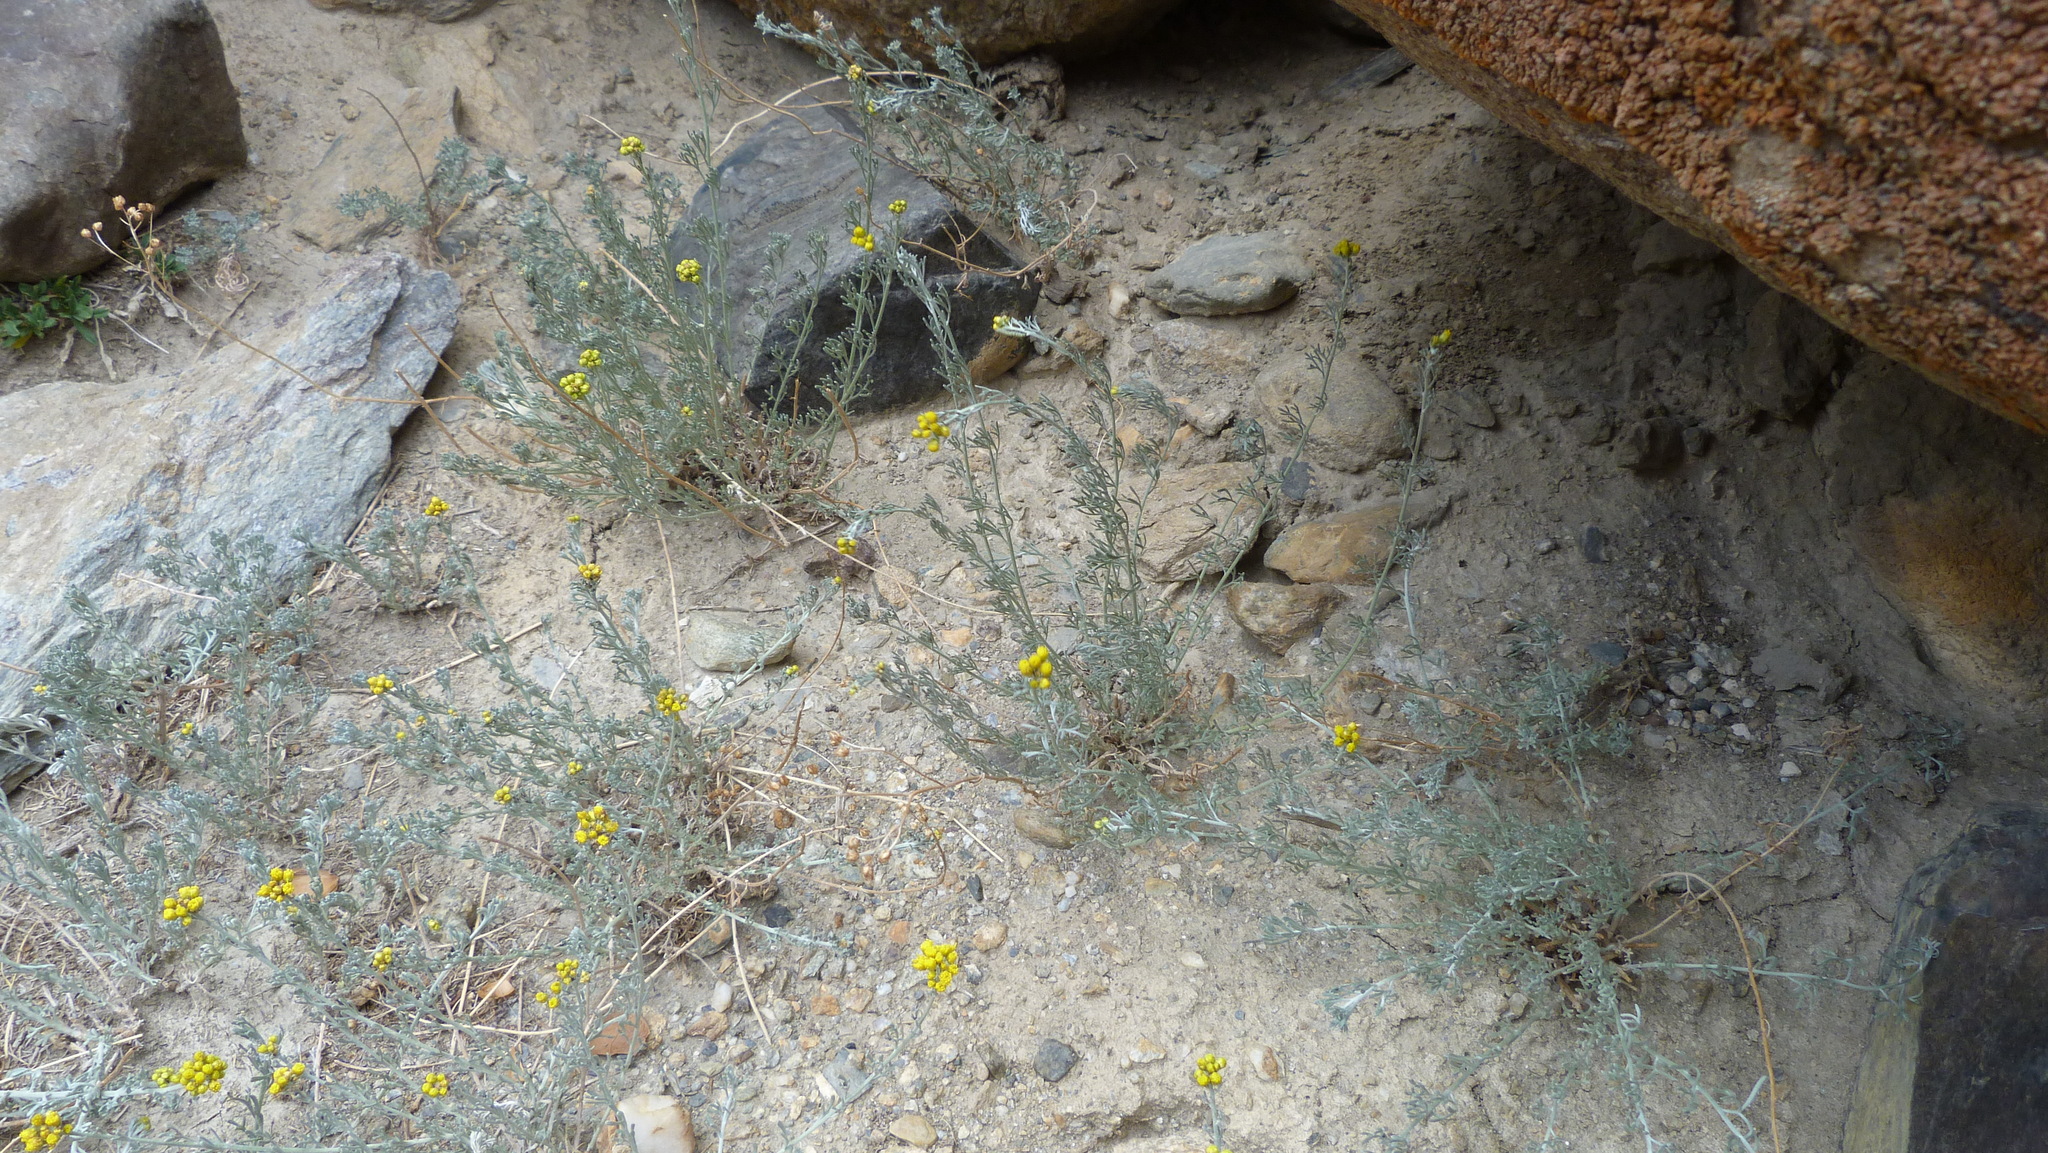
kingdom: Plantae
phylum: Tracheophyta
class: Magnoliopsida
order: Asterales
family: Asteraceae
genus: Ajania
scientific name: Ajania fruticulosa
